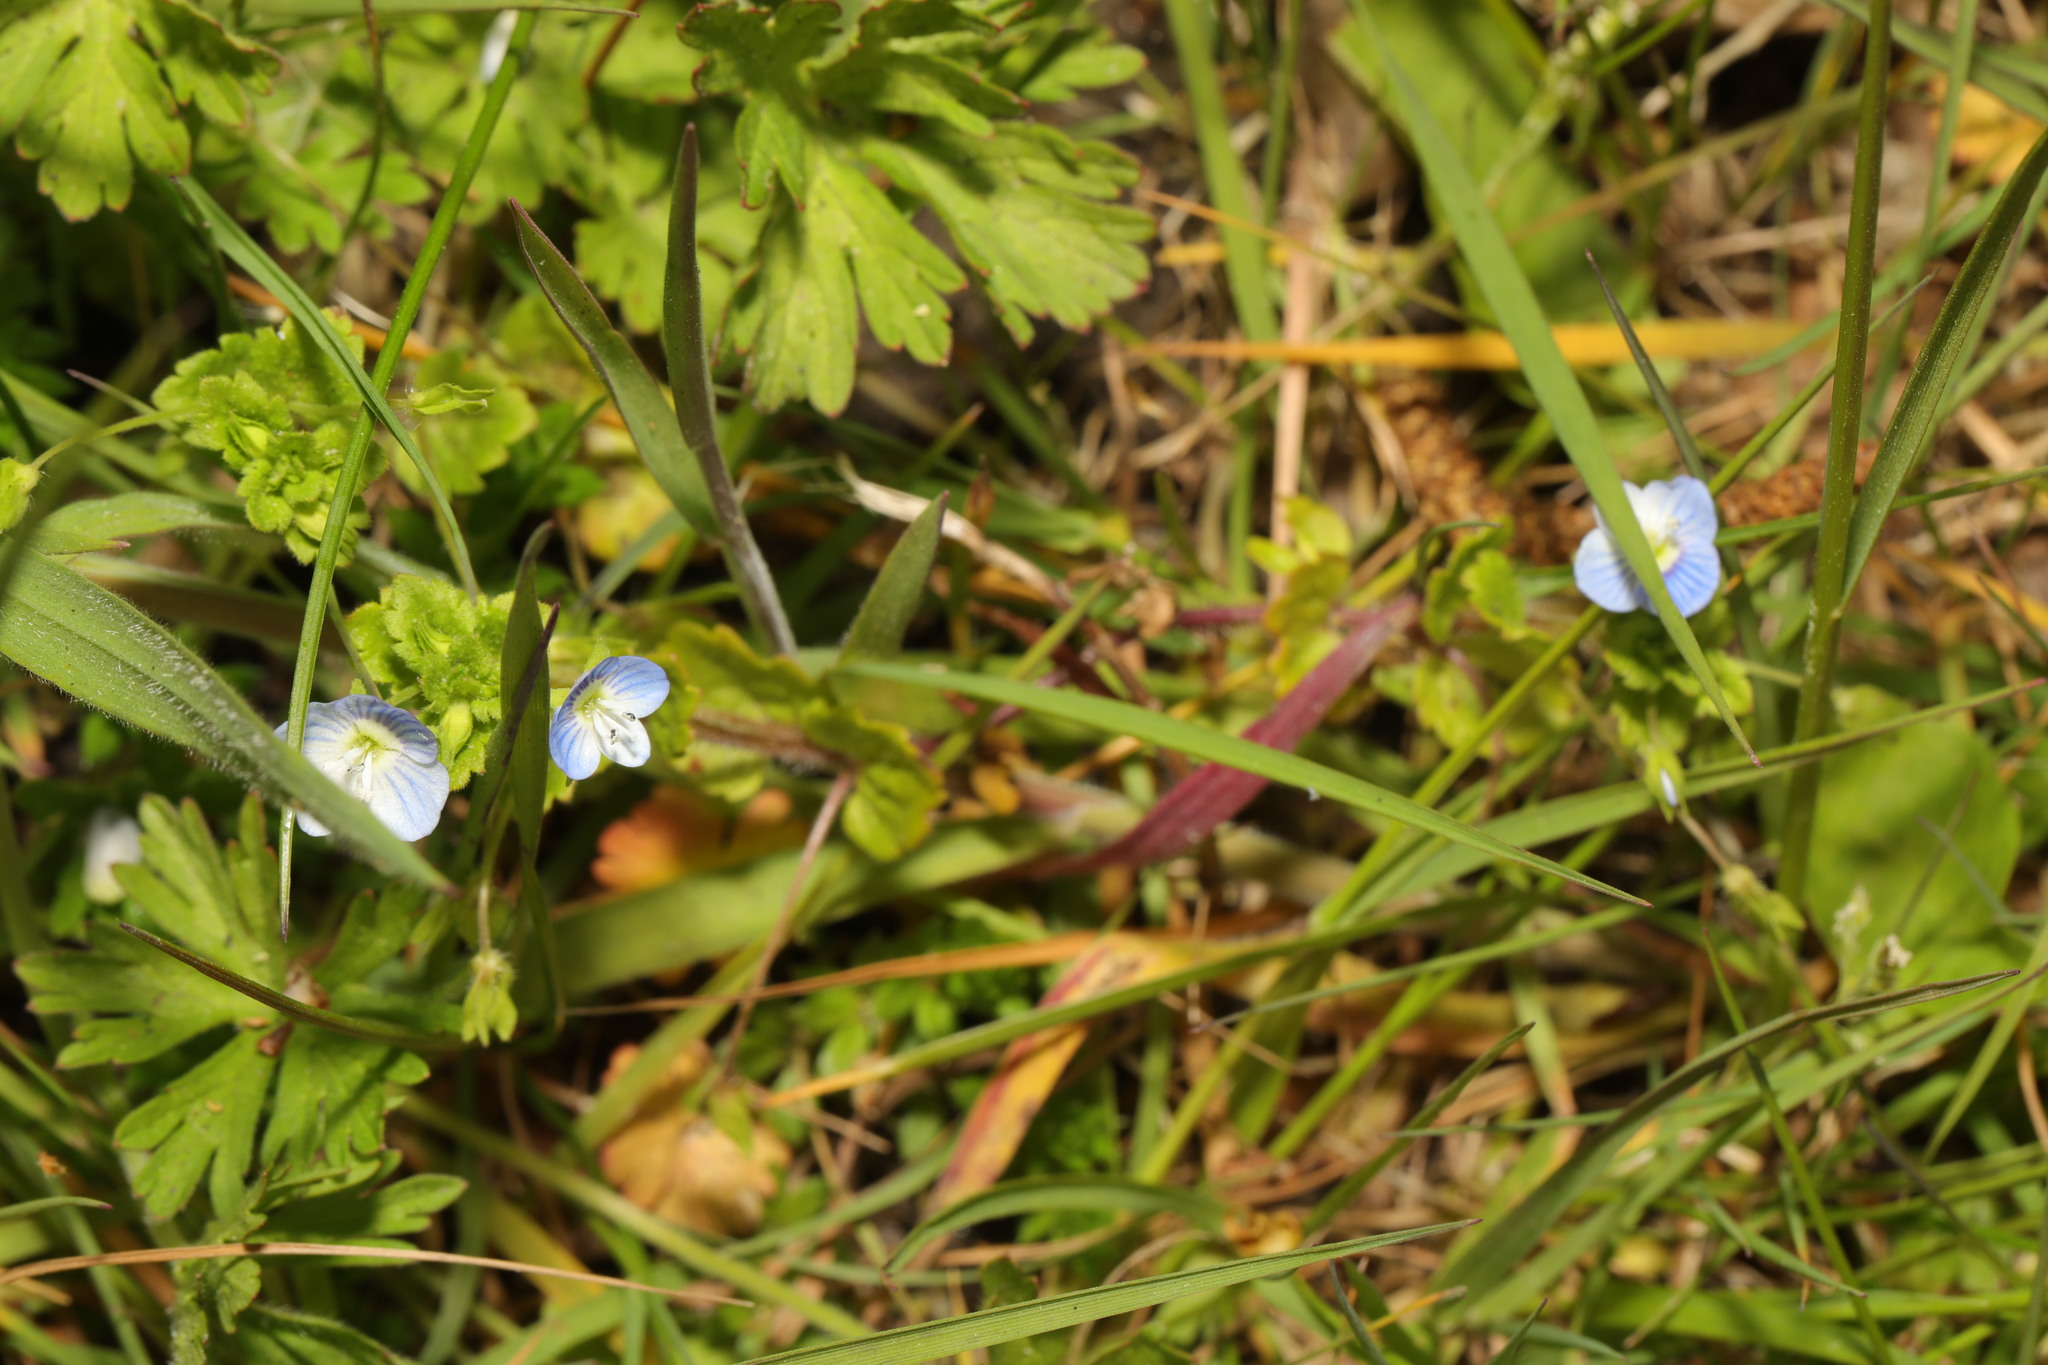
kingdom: Plantae
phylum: Tracheophyta
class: Magnoliopsida
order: Lamiales
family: Plantaginaceae
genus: Veronica
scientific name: Veronica persica
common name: Common field-speedwell
